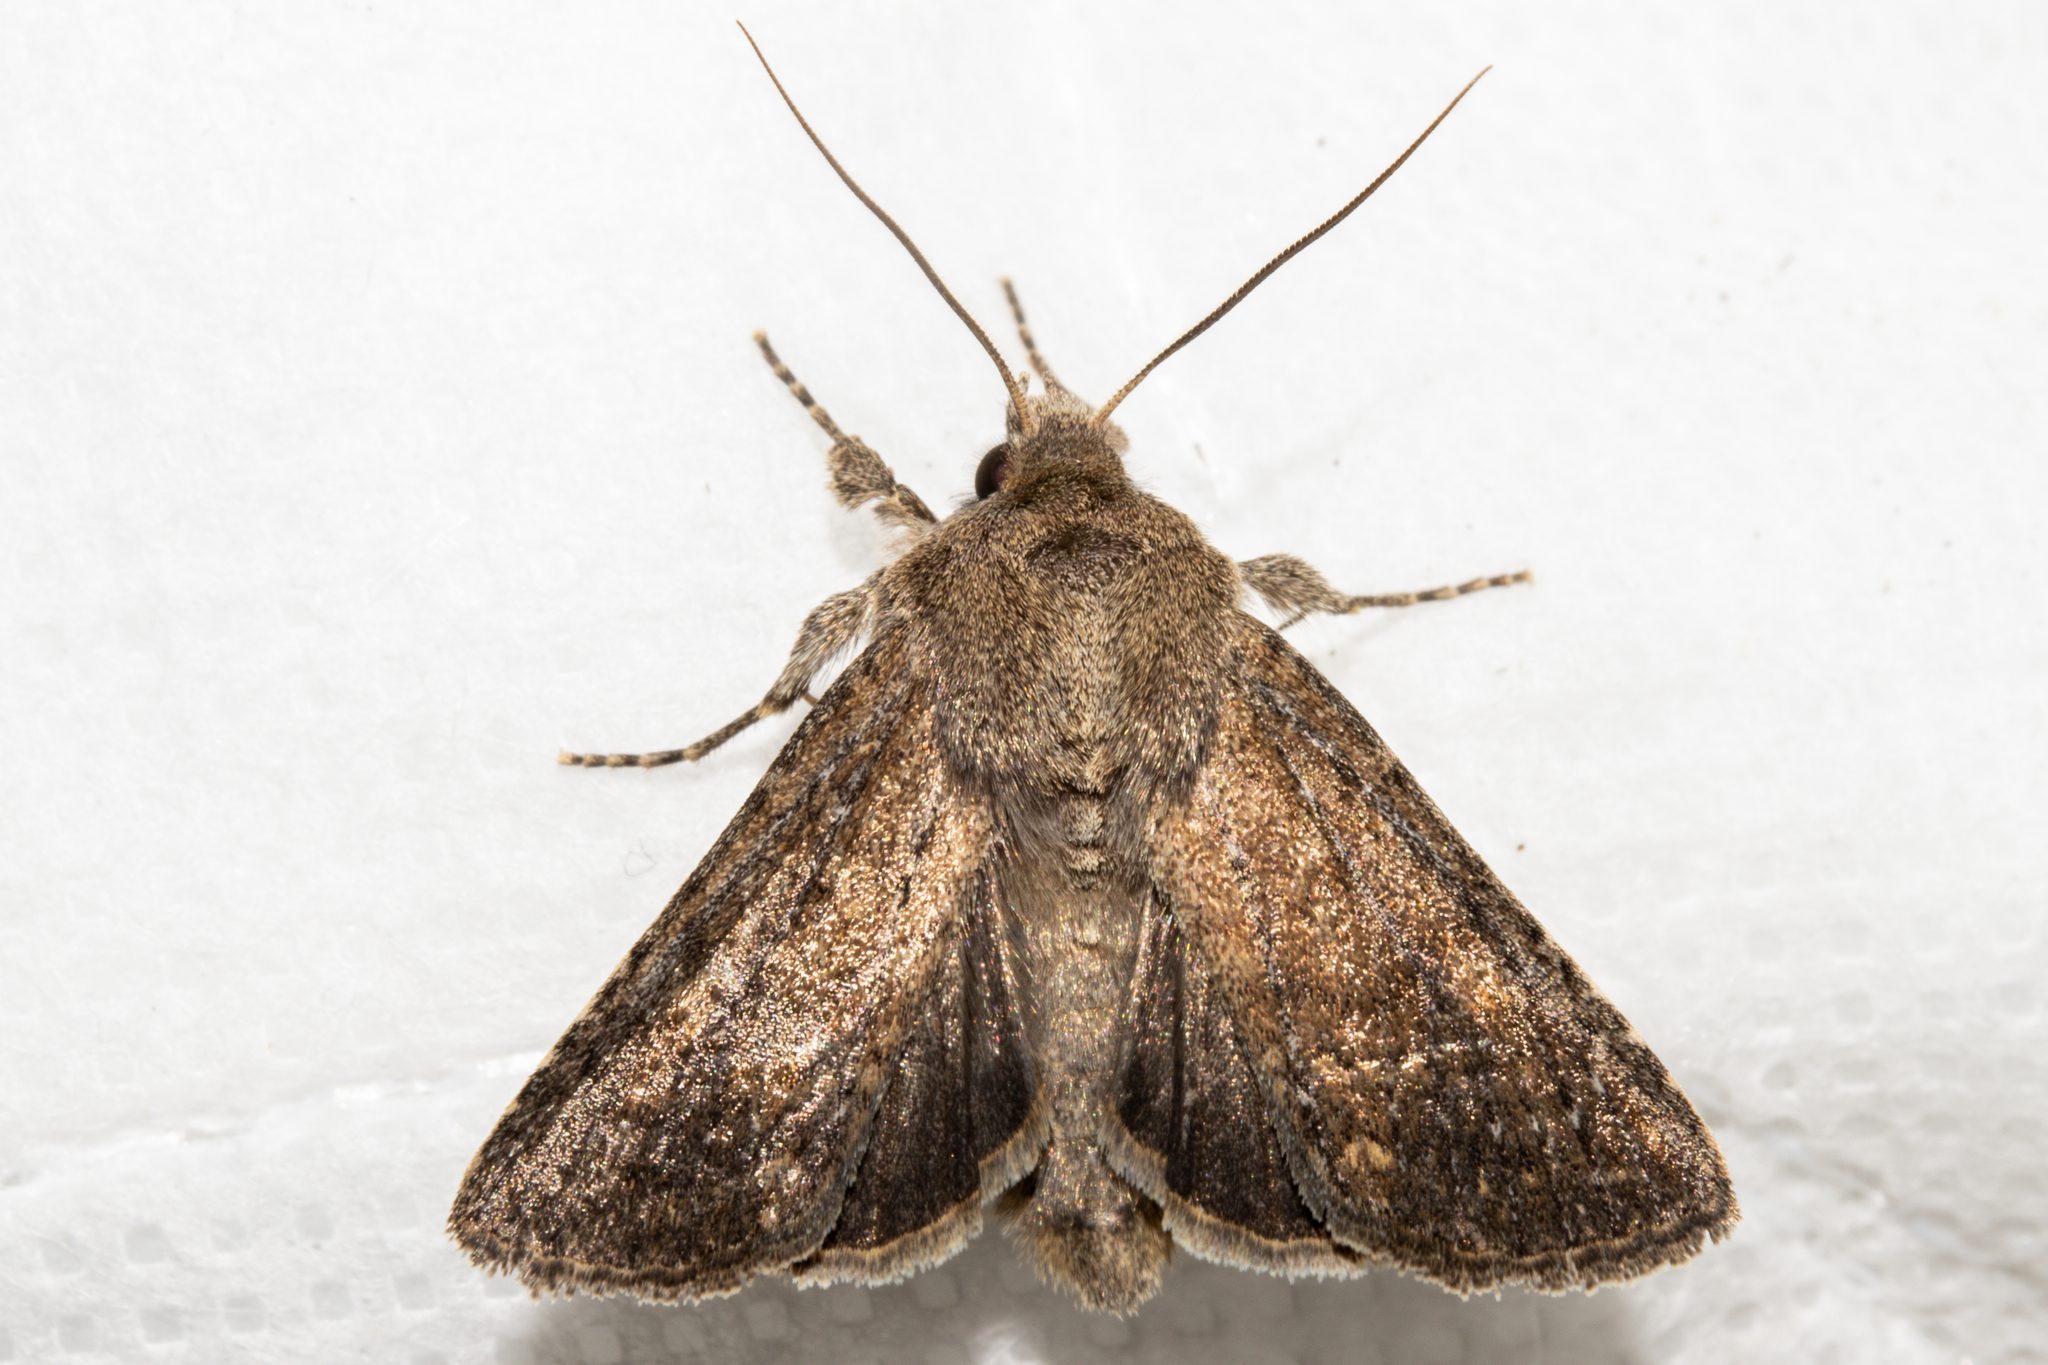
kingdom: Animalia
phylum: Arthropoda
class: Insecta
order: Lepidoptera
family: Noctuidae
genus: Physetica
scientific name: Physetica
